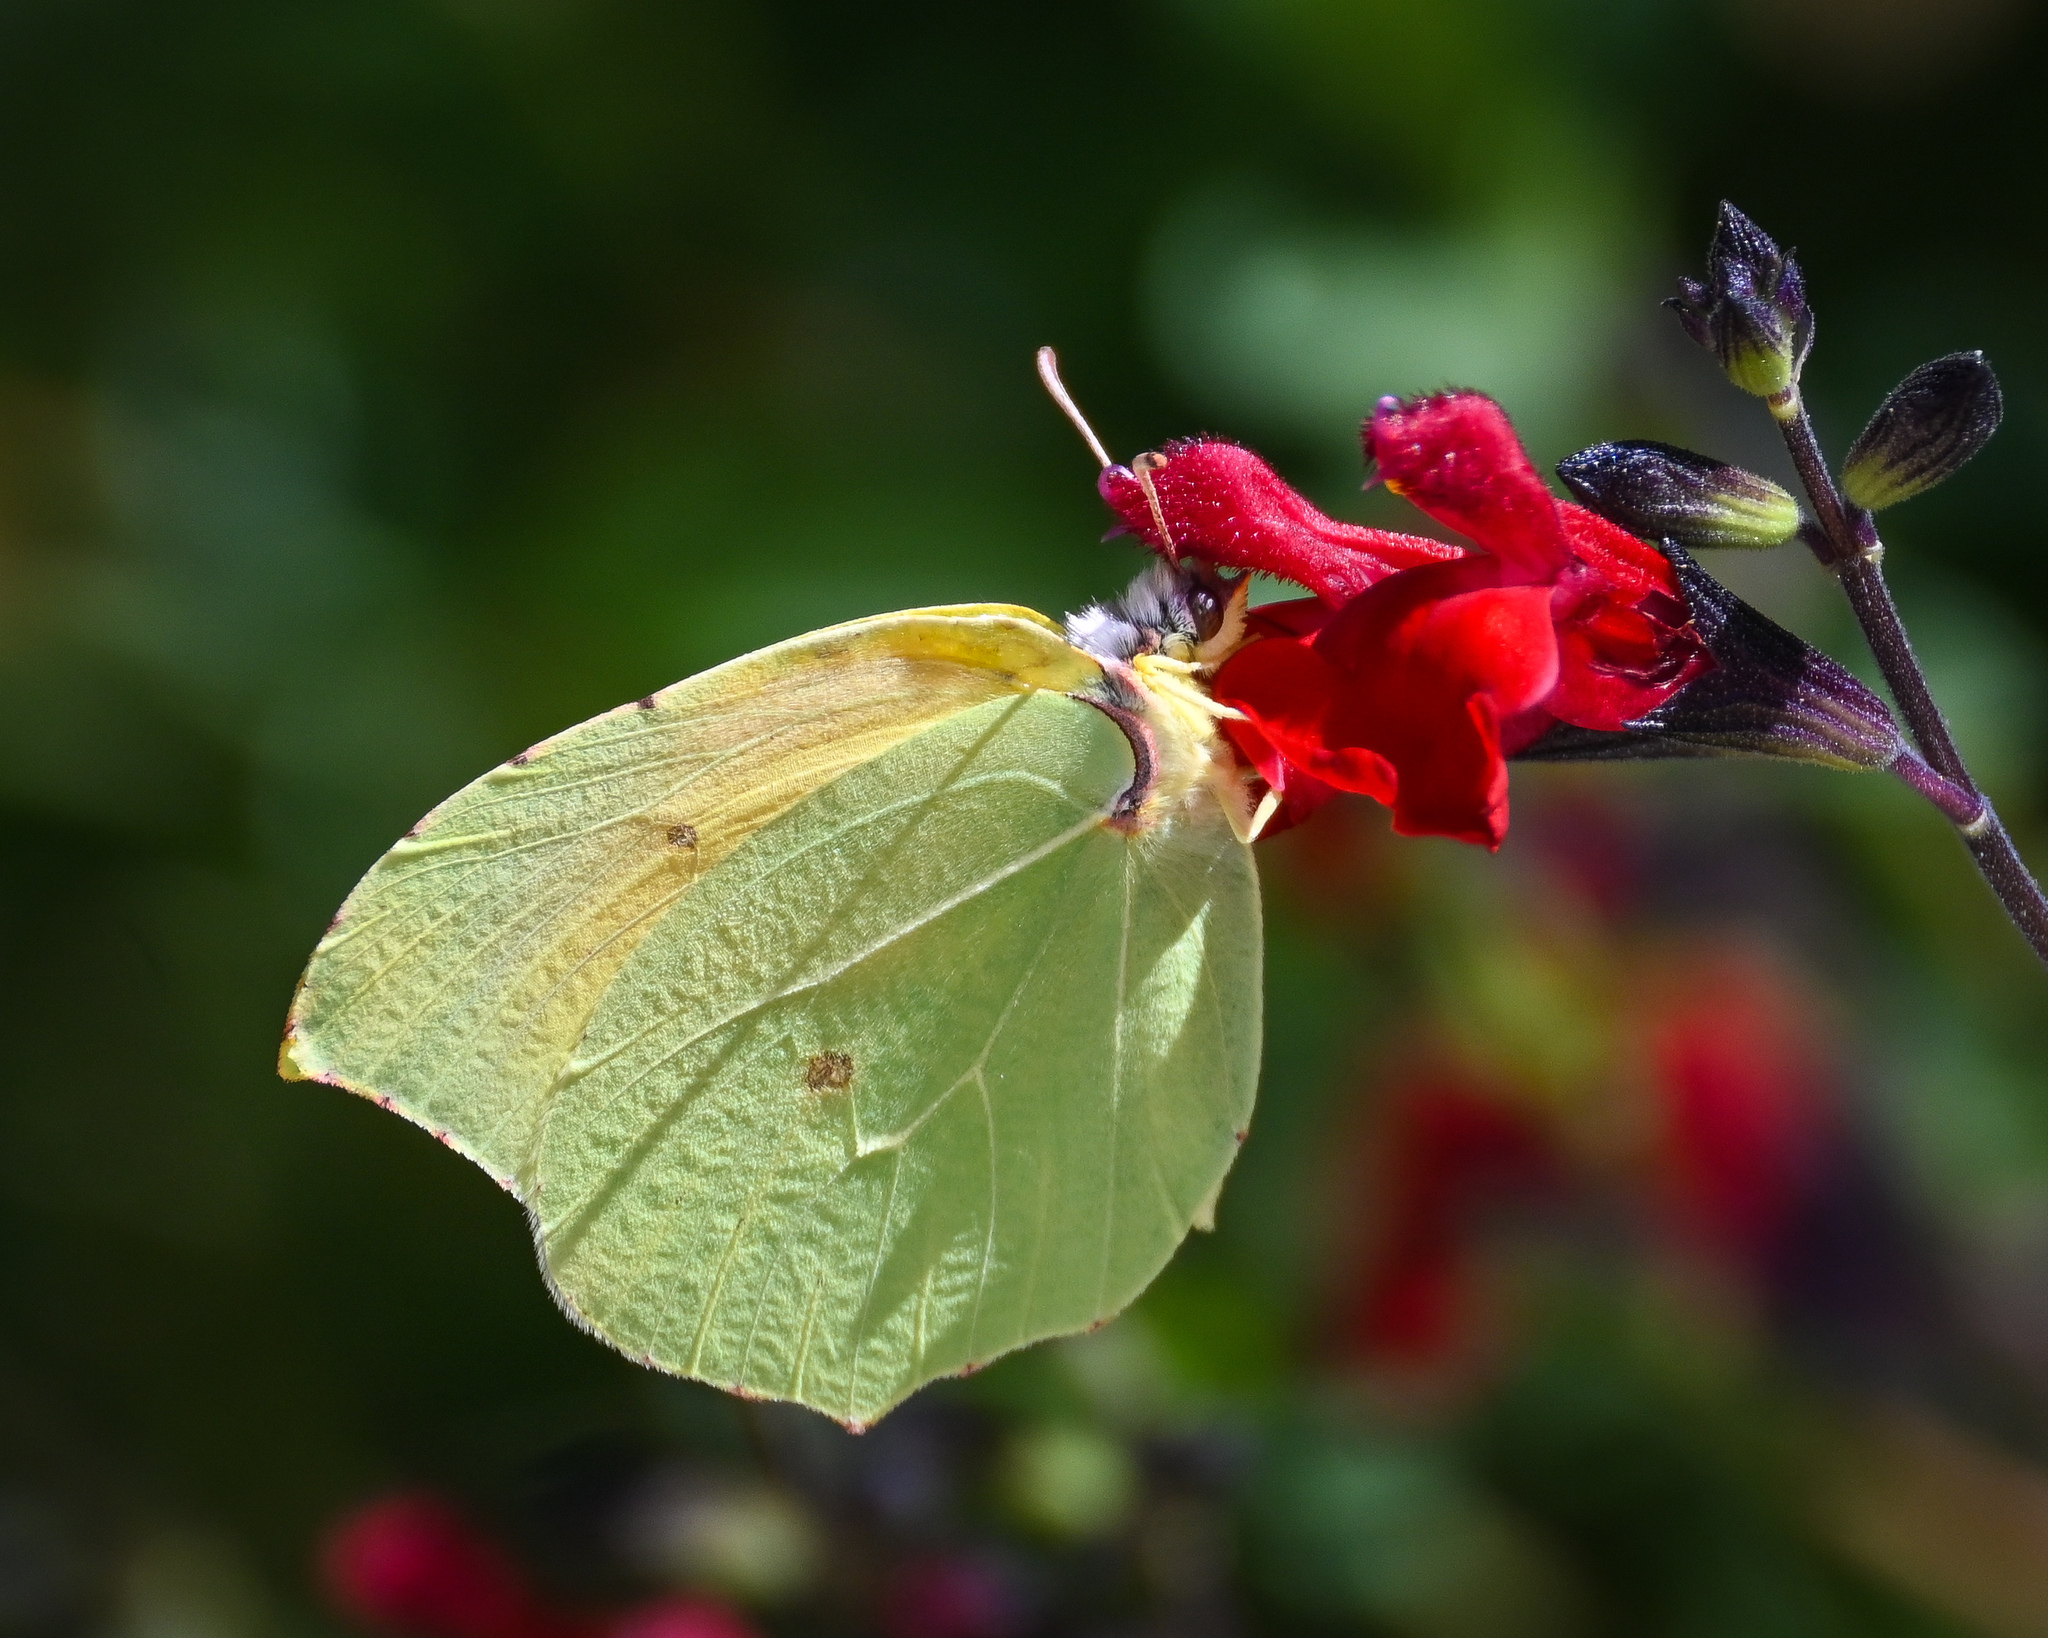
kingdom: Animalia
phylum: Arthropoda
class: Insecta
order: Lepidoptera
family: Pieridae
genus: Gonepteryx
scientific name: Gonepteryx cleopatra
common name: Cleopatra
